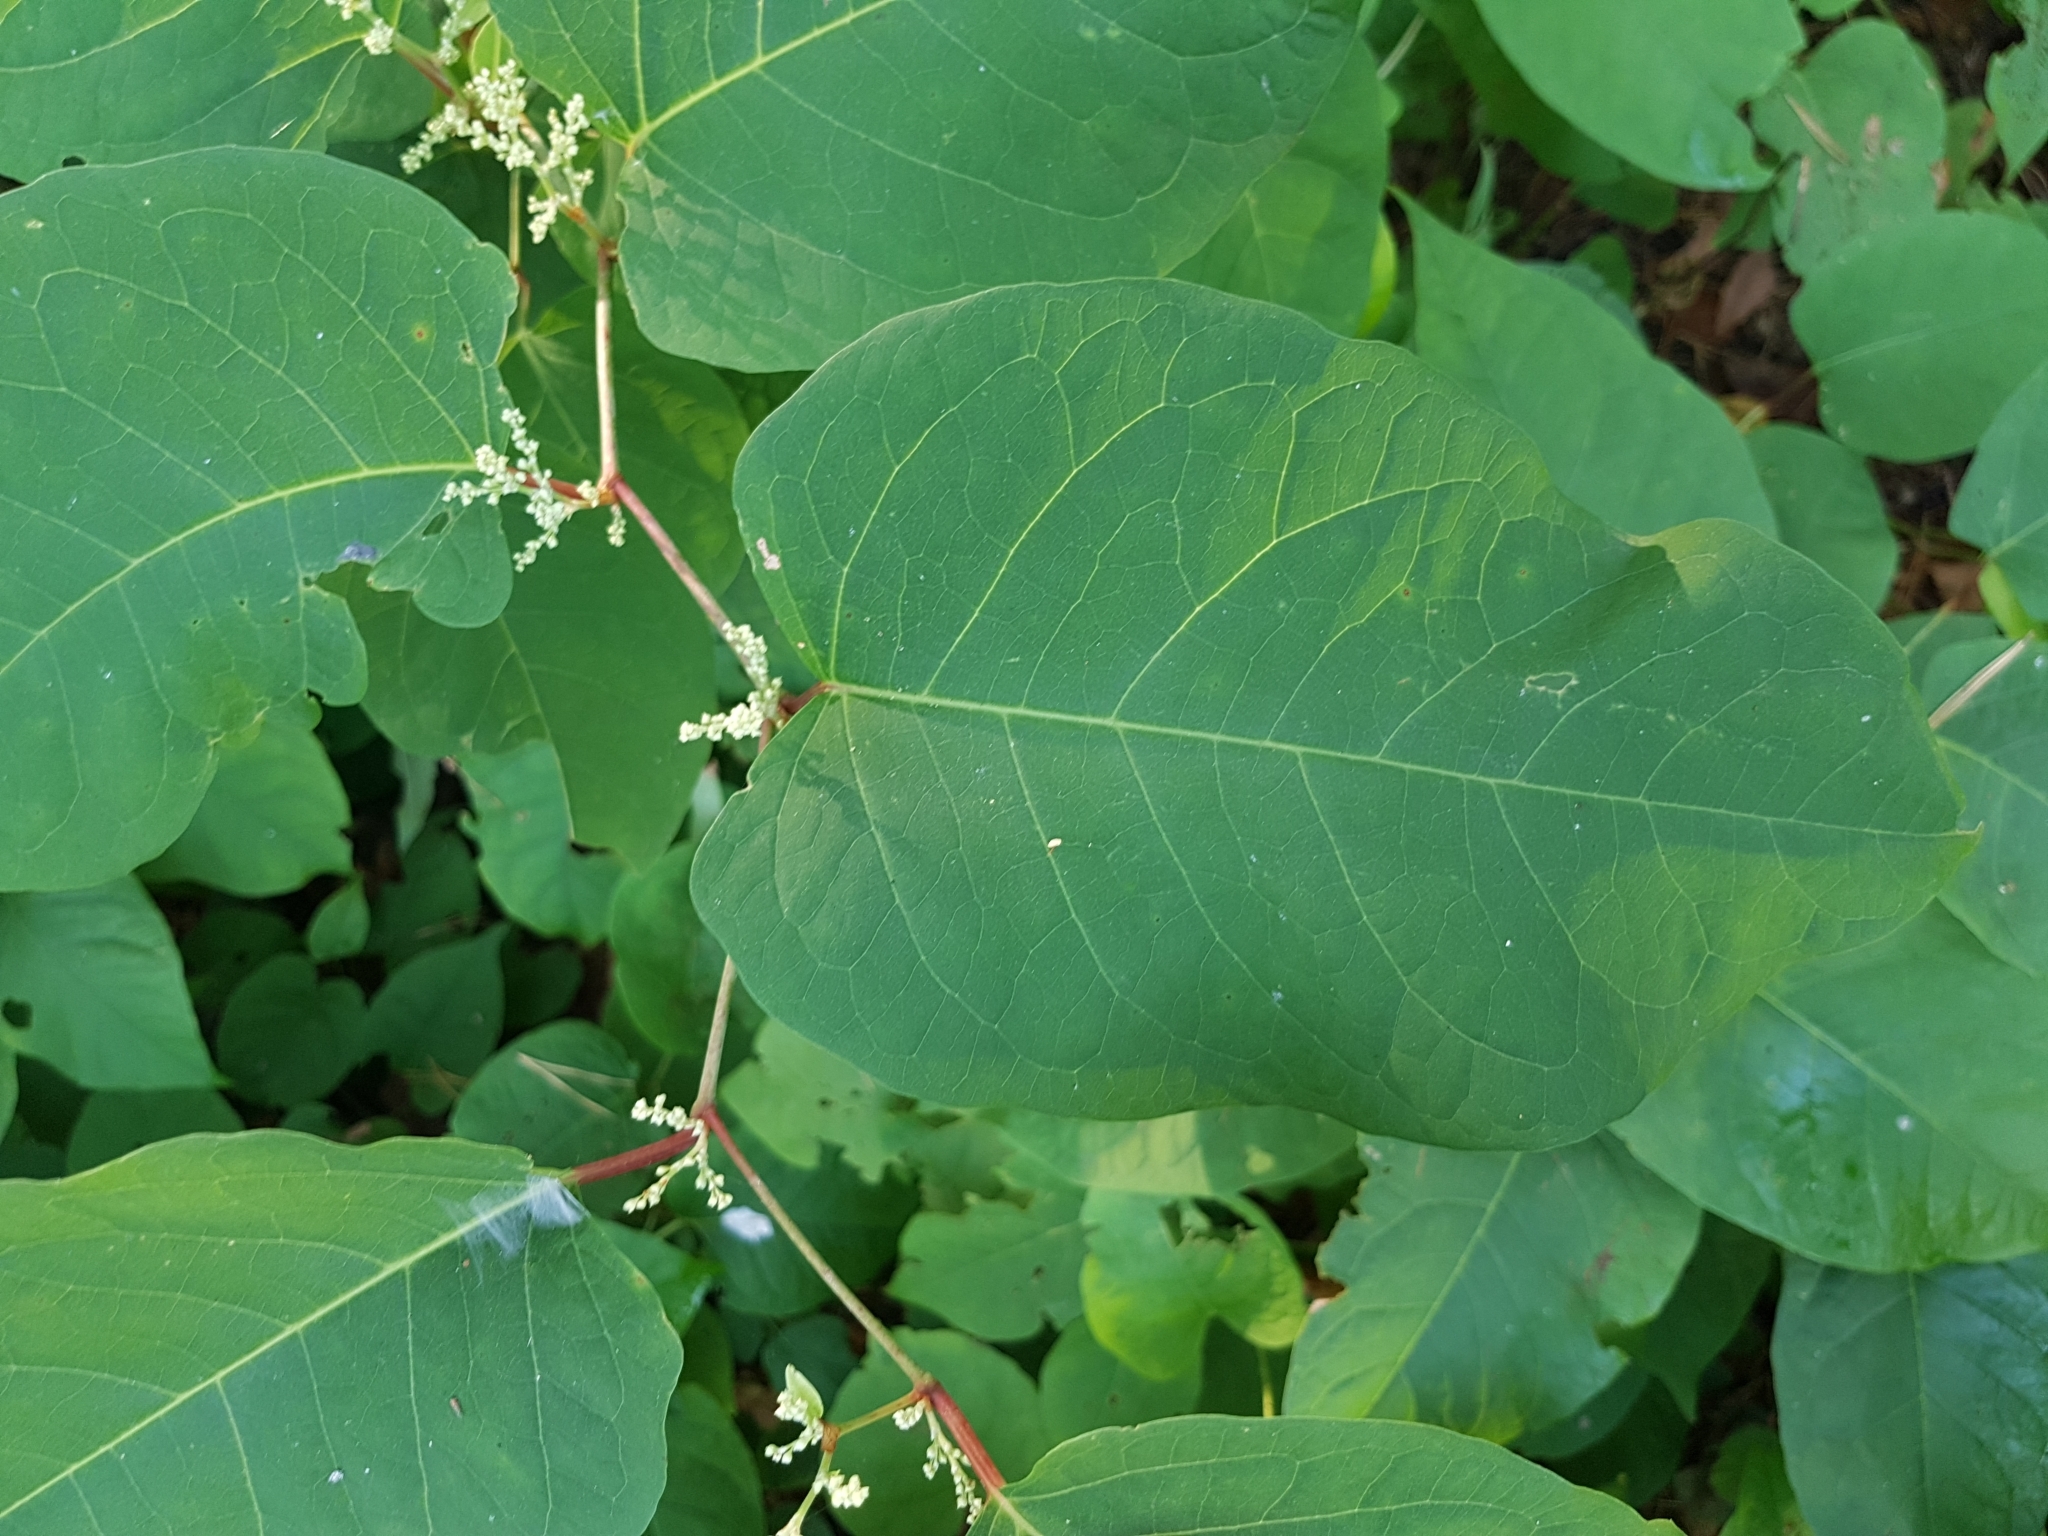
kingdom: Plantae
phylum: Tracheophyta
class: Magnoliopsida
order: Caryophyllales
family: Polygonaceae
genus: Reynoutria
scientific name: Reynoutria japonica
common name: Japanese knotweed
